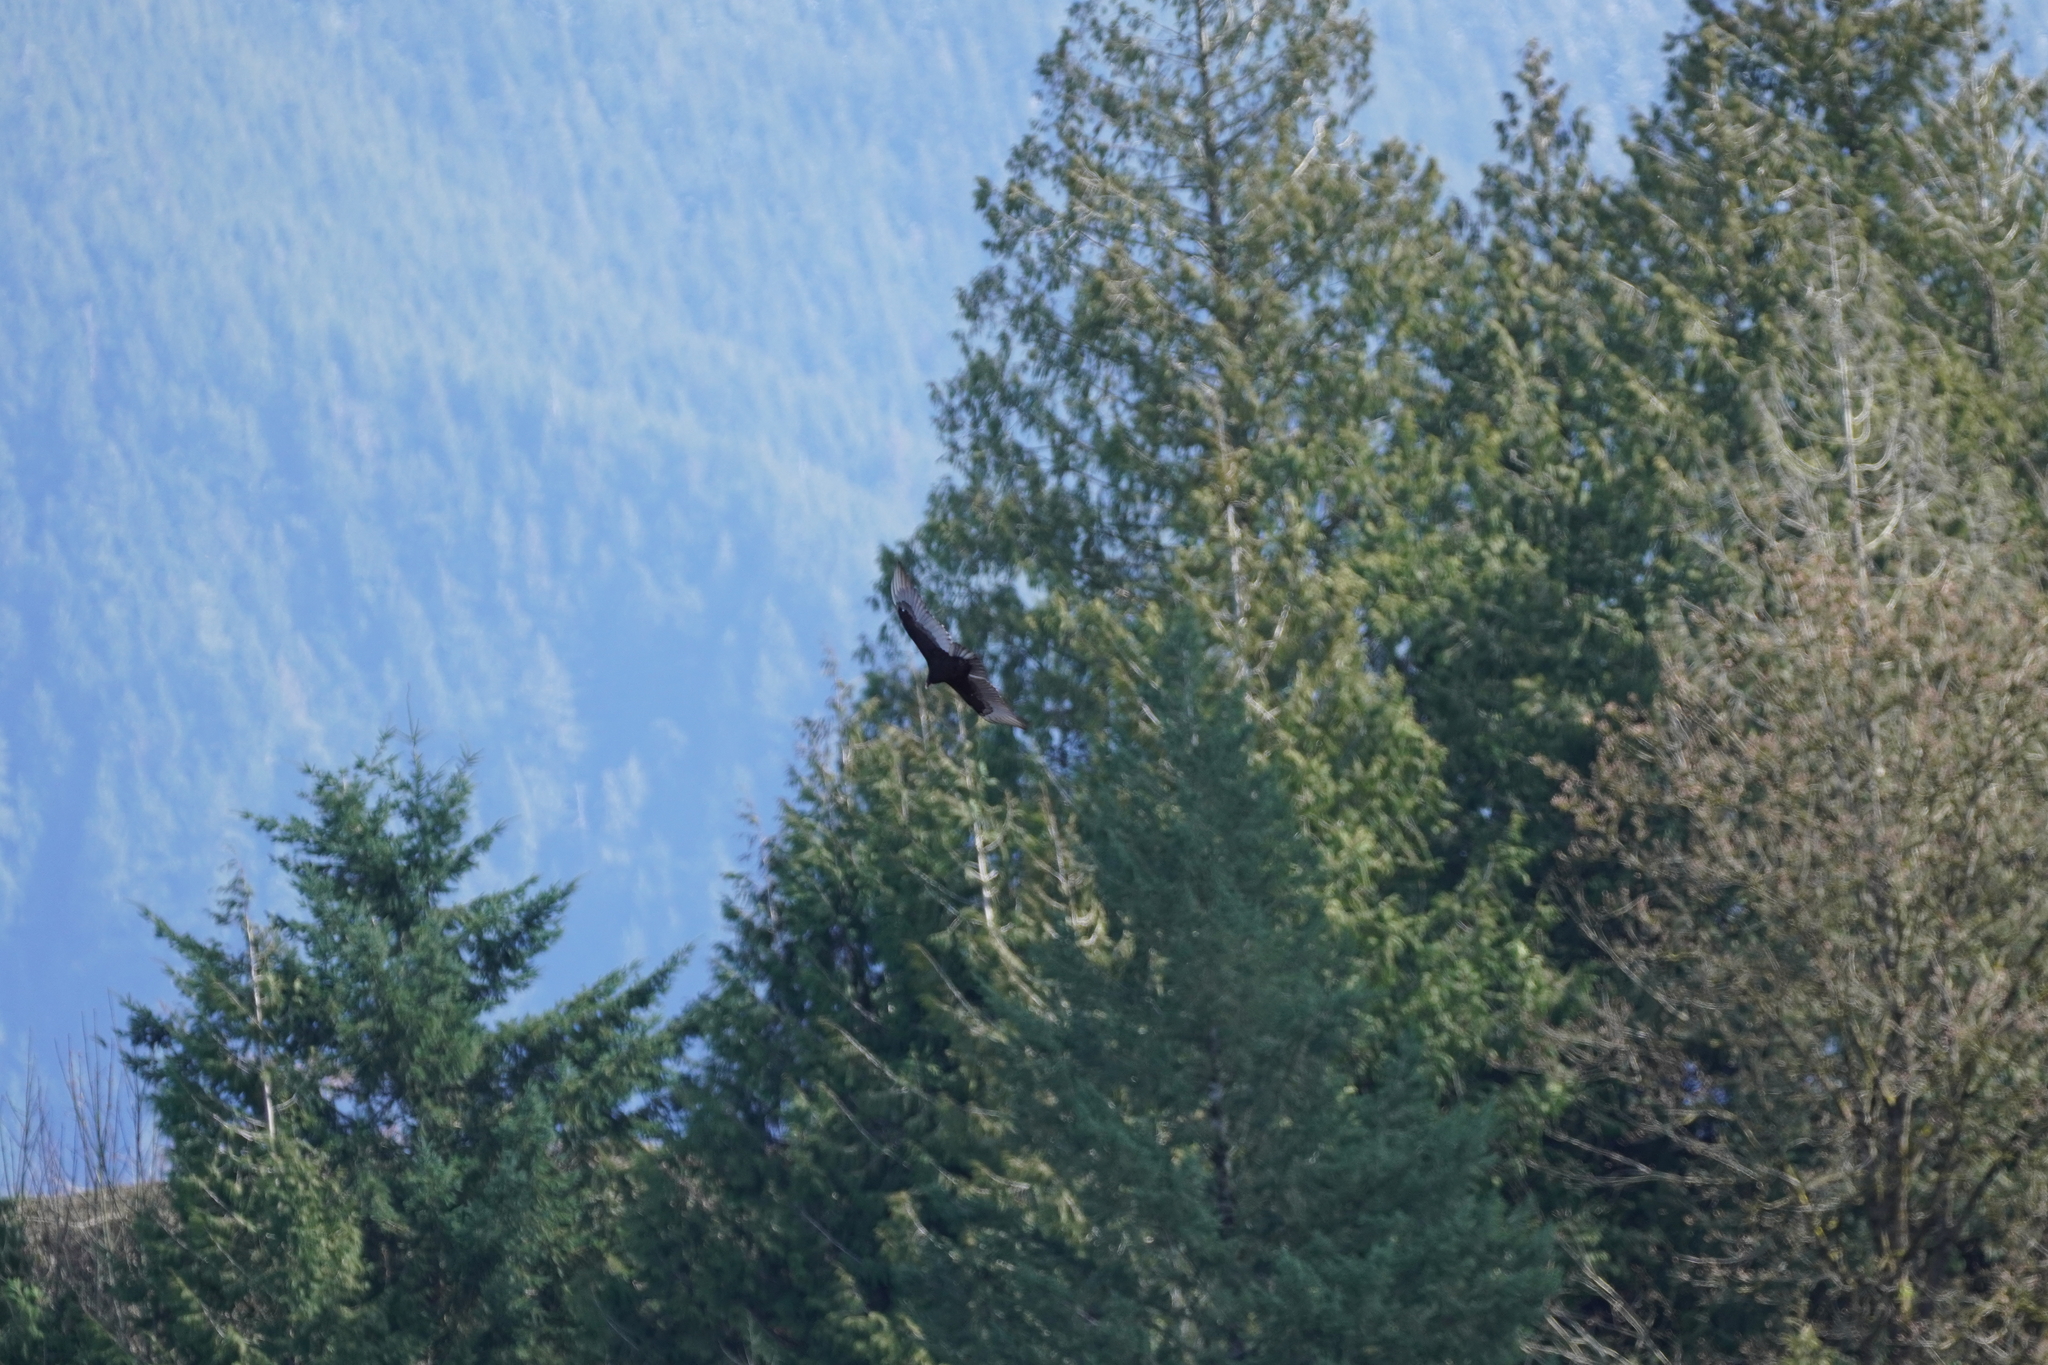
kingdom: Animalia
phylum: Chordata
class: Aves
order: Accipitriformes
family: Cathartidae
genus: Cathartes
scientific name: Cathartes aura
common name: Turkey vulture
